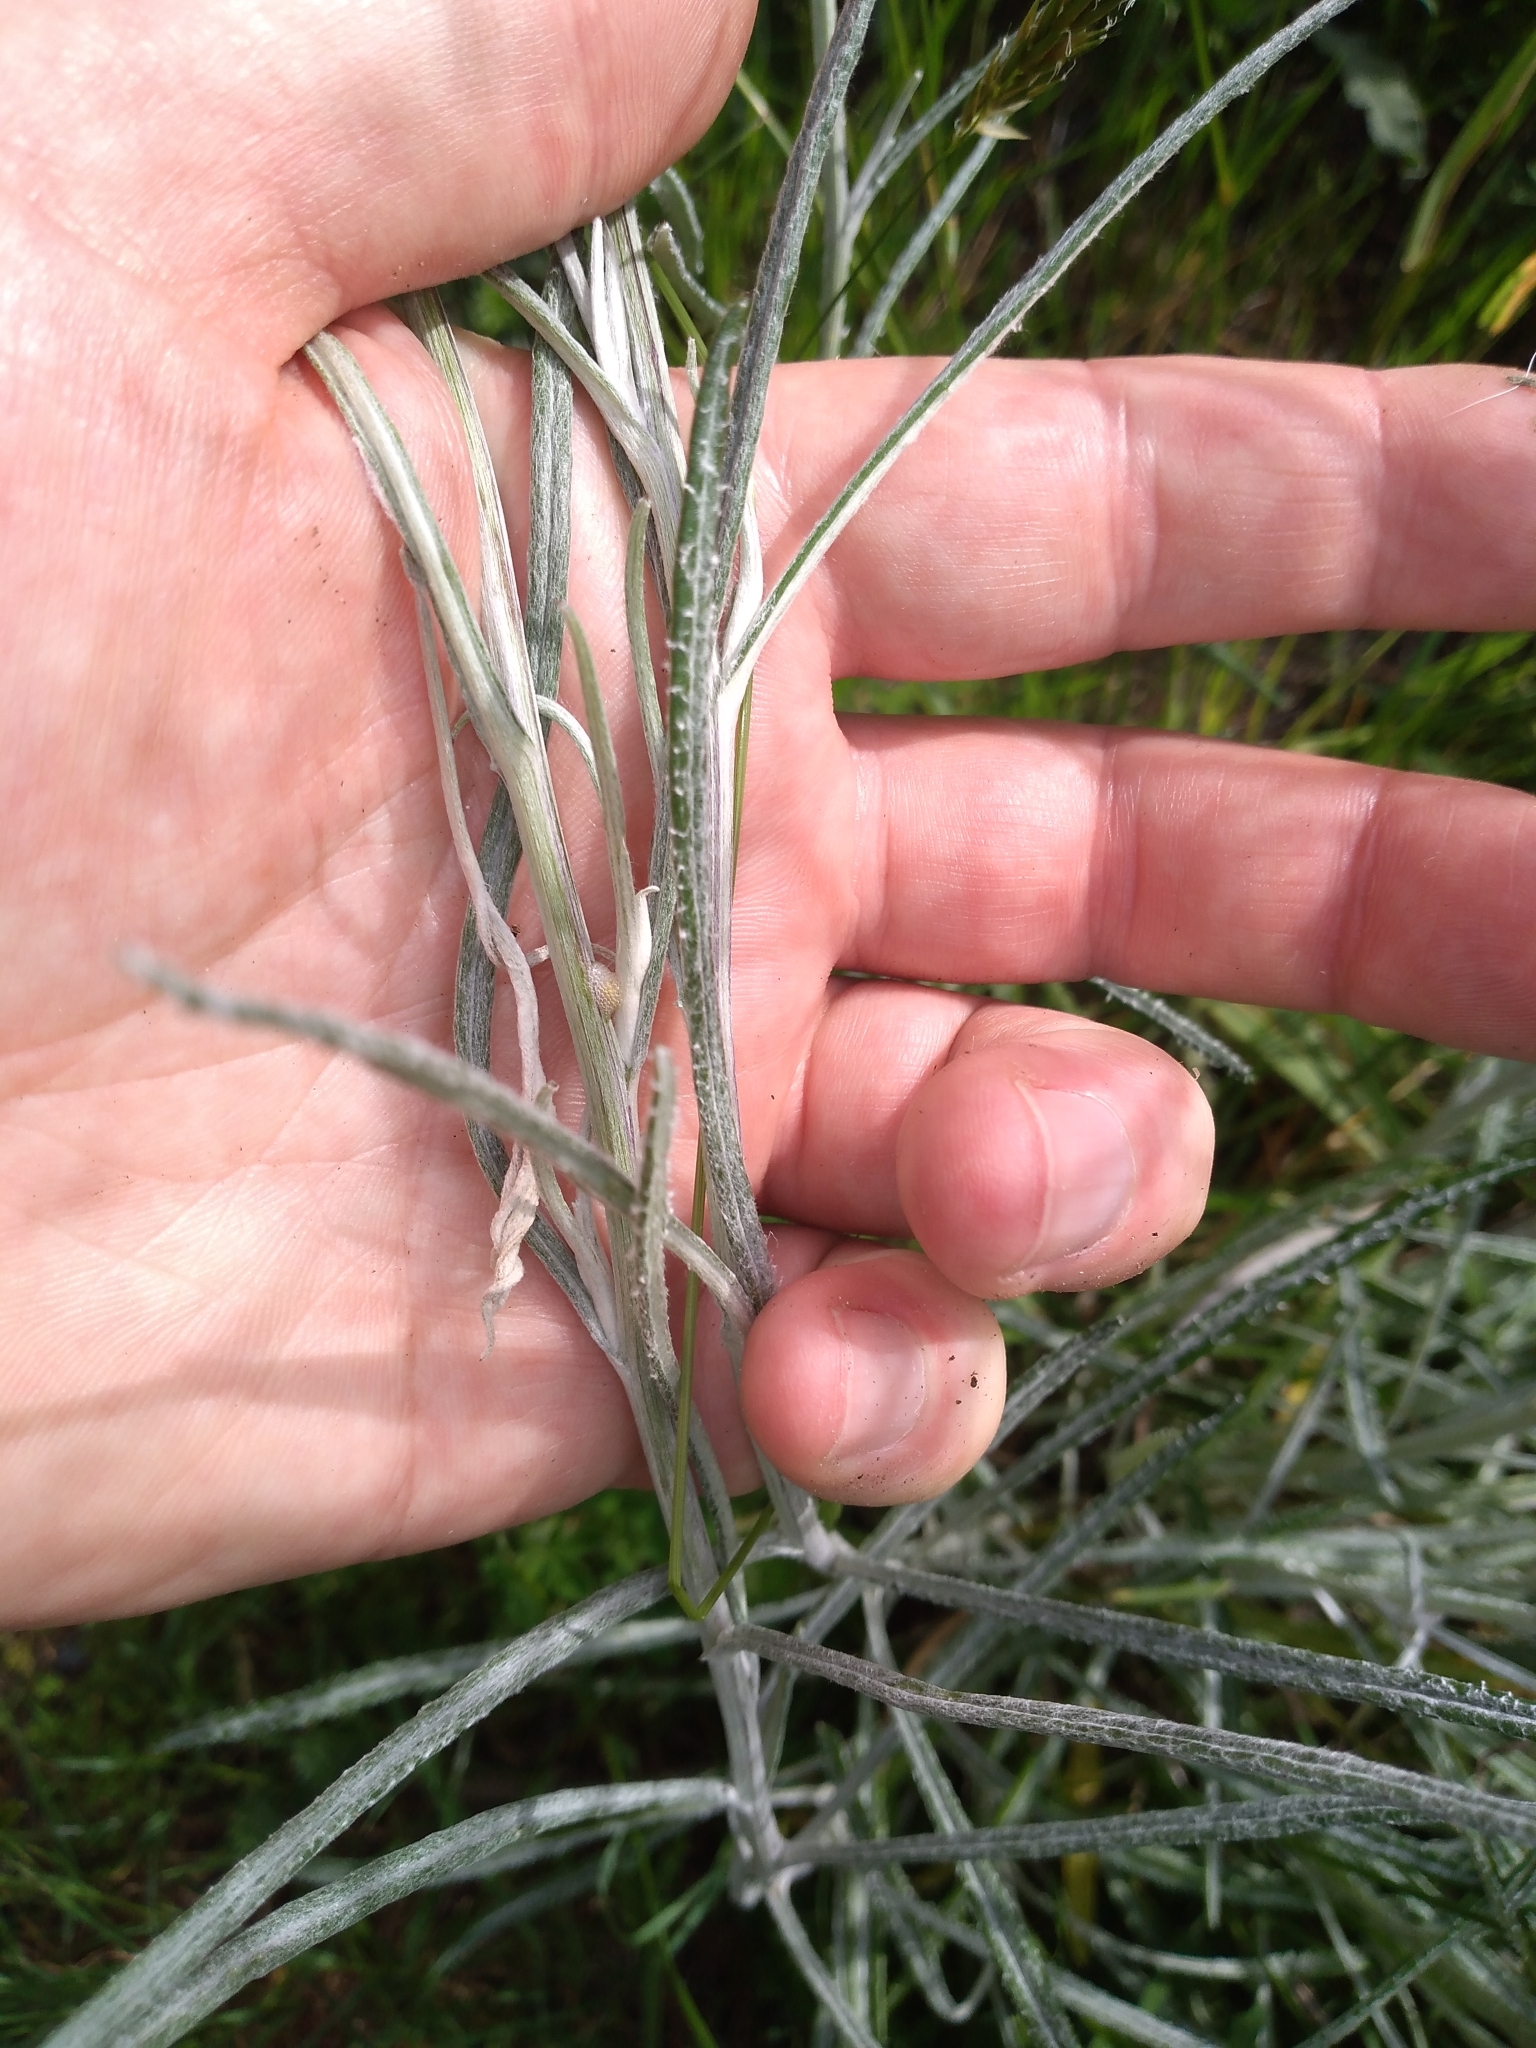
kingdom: Plantae
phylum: Tracheophyta
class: Magnoliopsida
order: Asterales
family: Asteraceae
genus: Senecio
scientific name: Senecio quadridentatus
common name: Cotton fireweed
